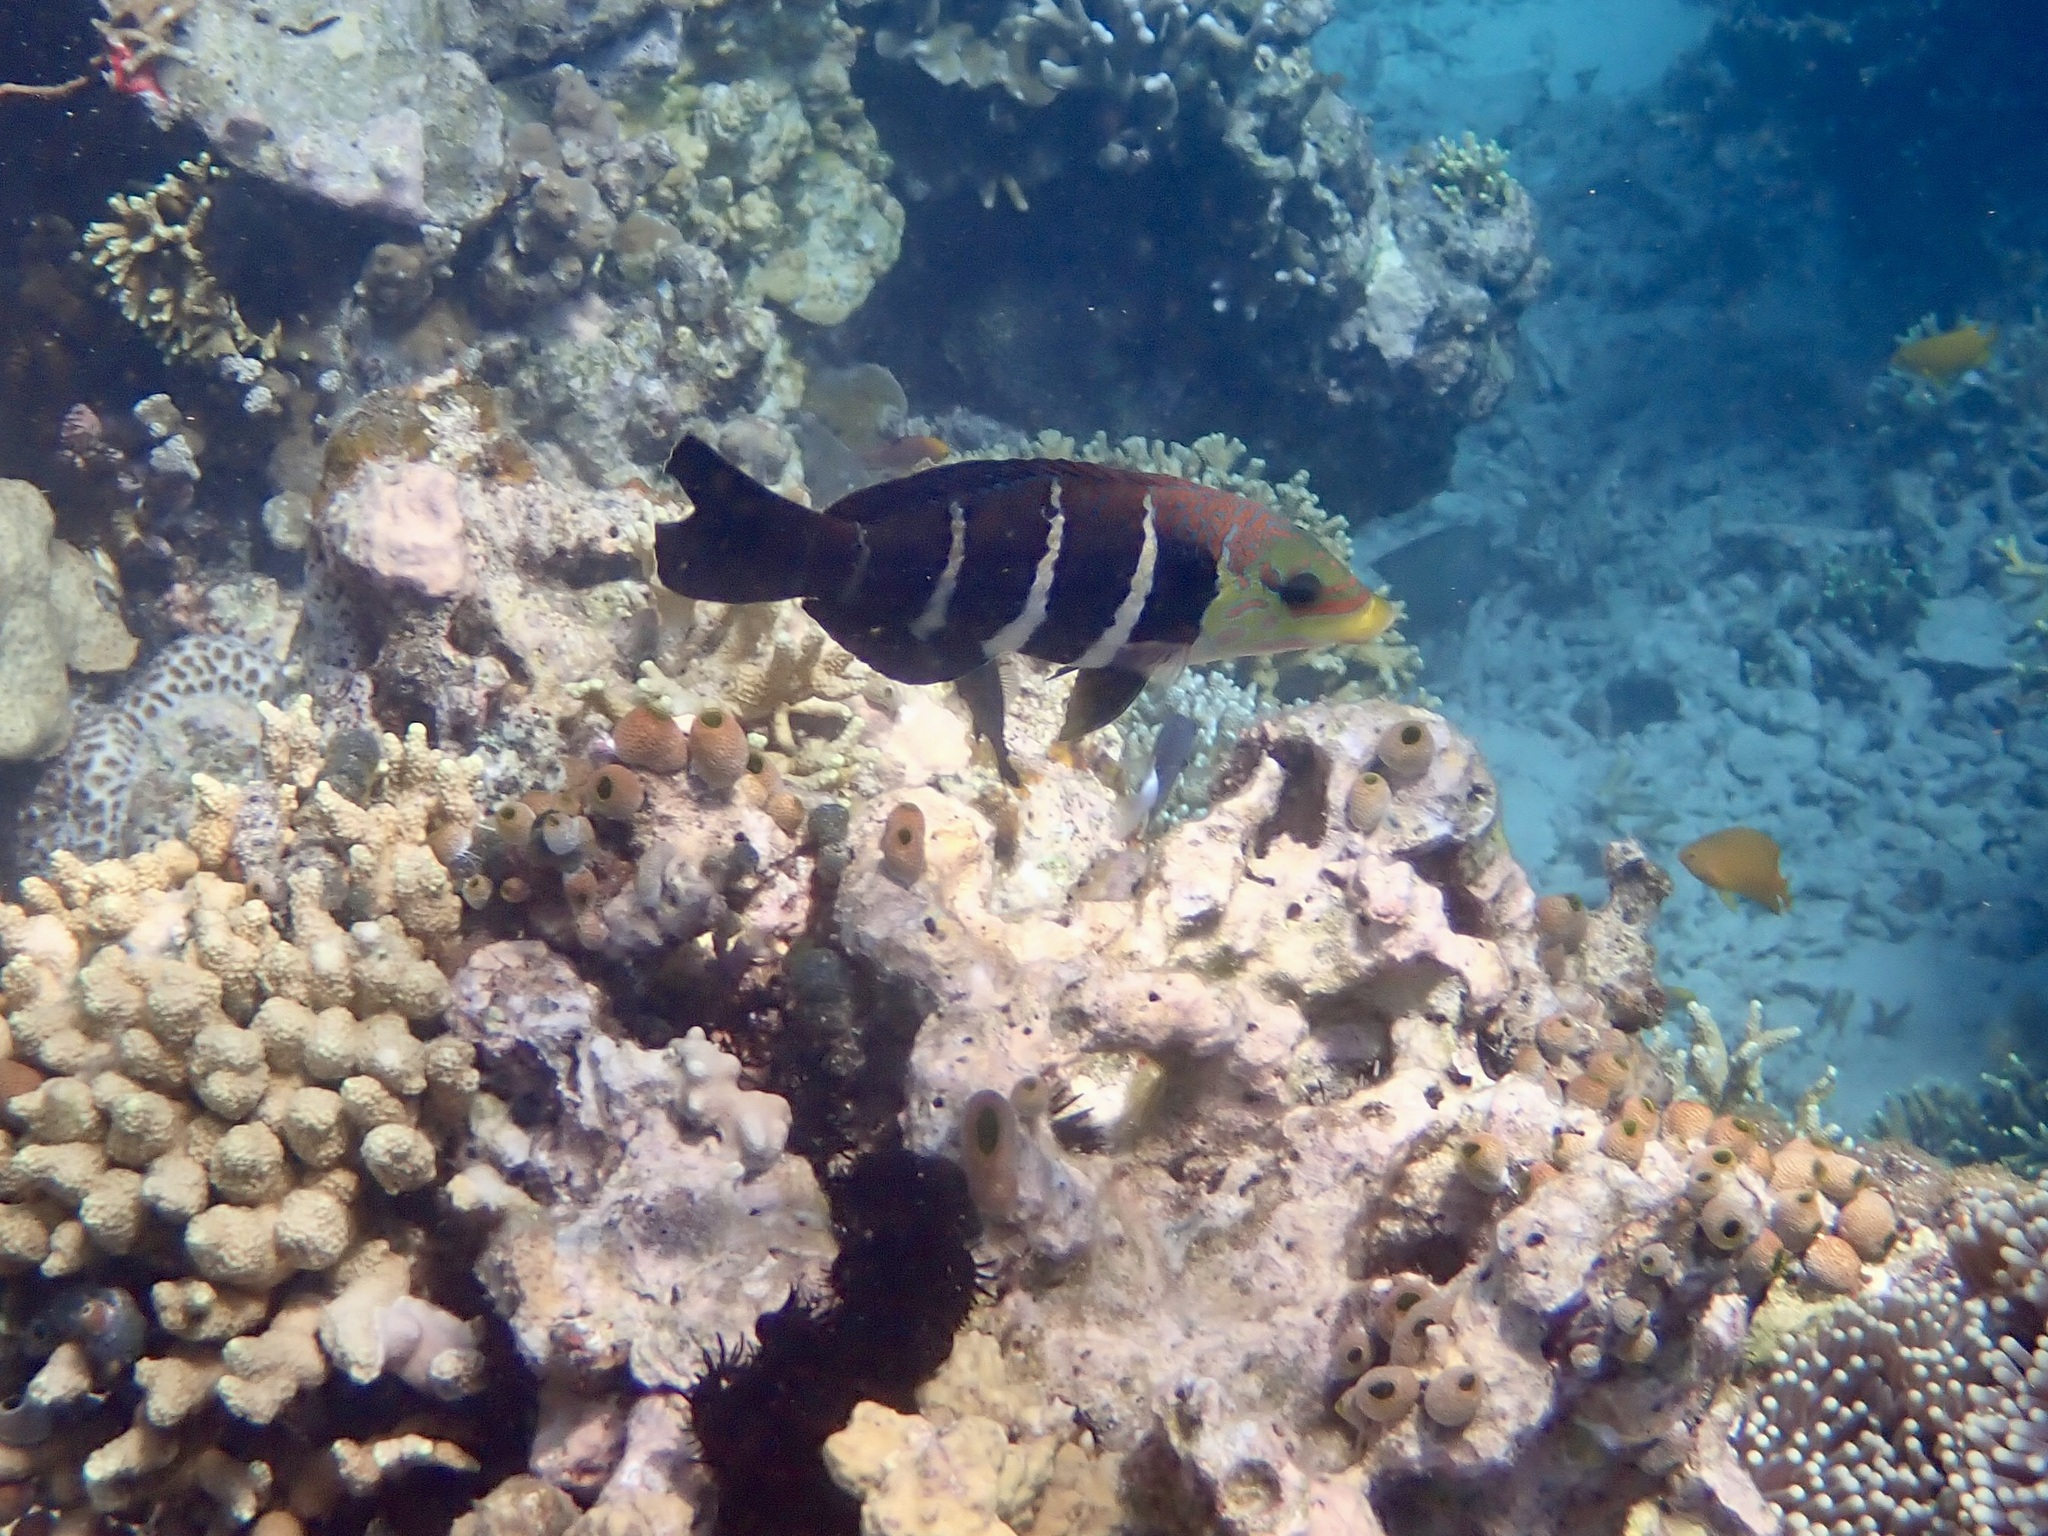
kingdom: Animalia
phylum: Chordata
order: Perciformes
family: Labridae
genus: Hemigymnus
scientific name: Hemigymnus fasciatus
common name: Barred thicklip
